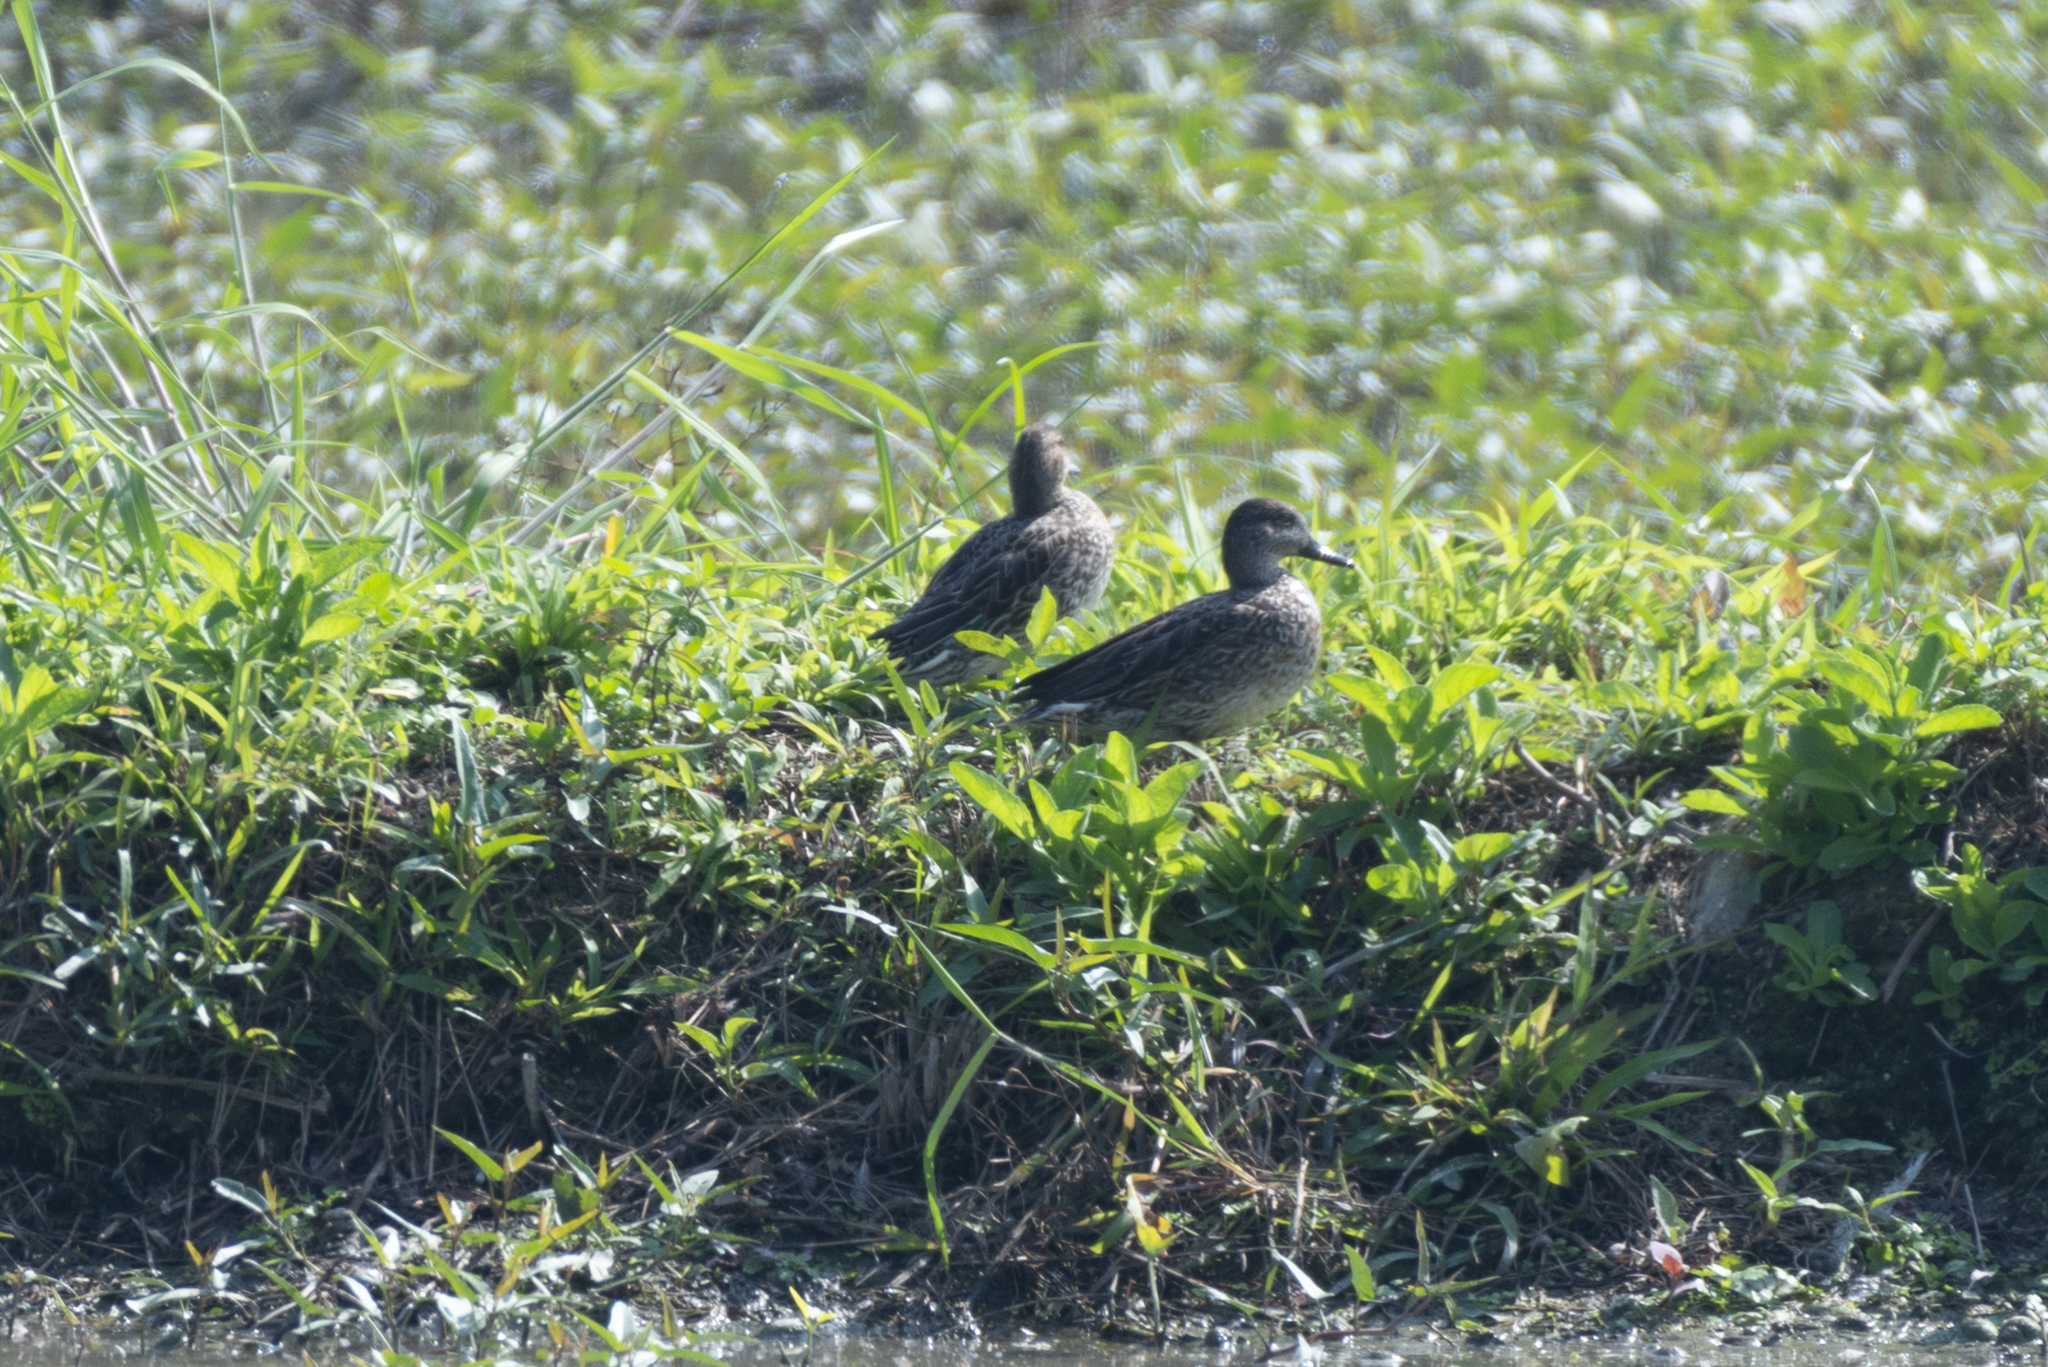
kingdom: Animalia
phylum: Chordata
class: Aves
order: Anseriformes
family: Anatidae
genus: Spatula
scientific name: Spatula querquedula
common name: Garganey
